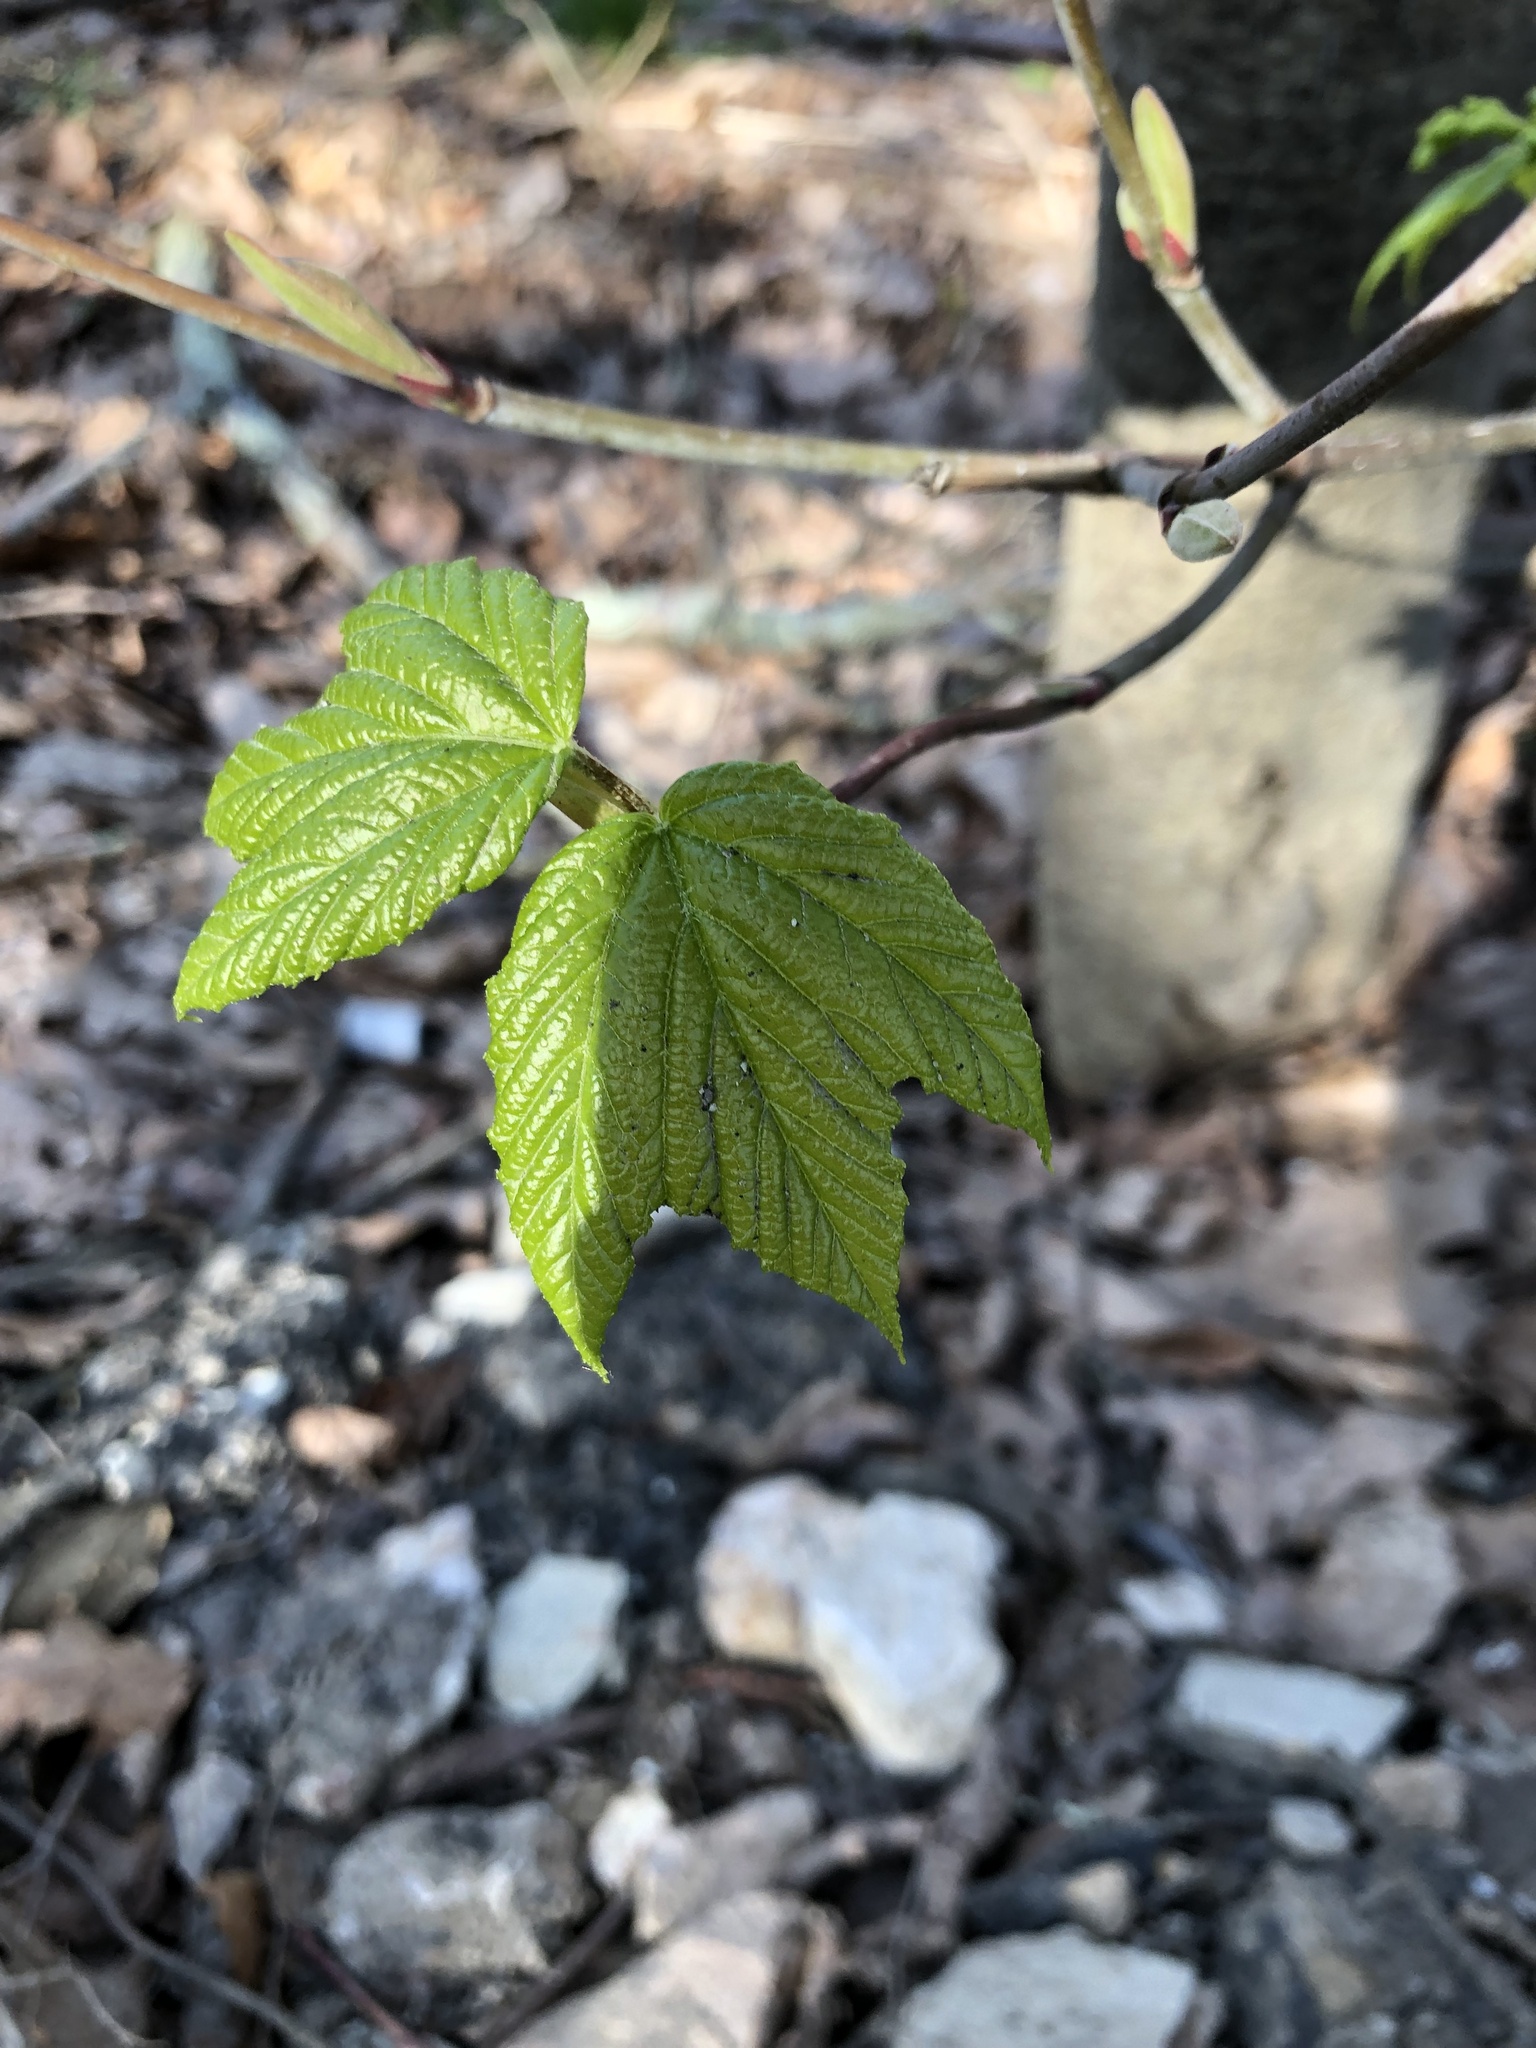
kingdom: Plantae
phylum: Tracheophyta
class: Magnoliopsida
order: Sapindales
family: Sapindaceae
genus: Acer
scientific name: Acer pensylvanicum
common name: Moosewood
